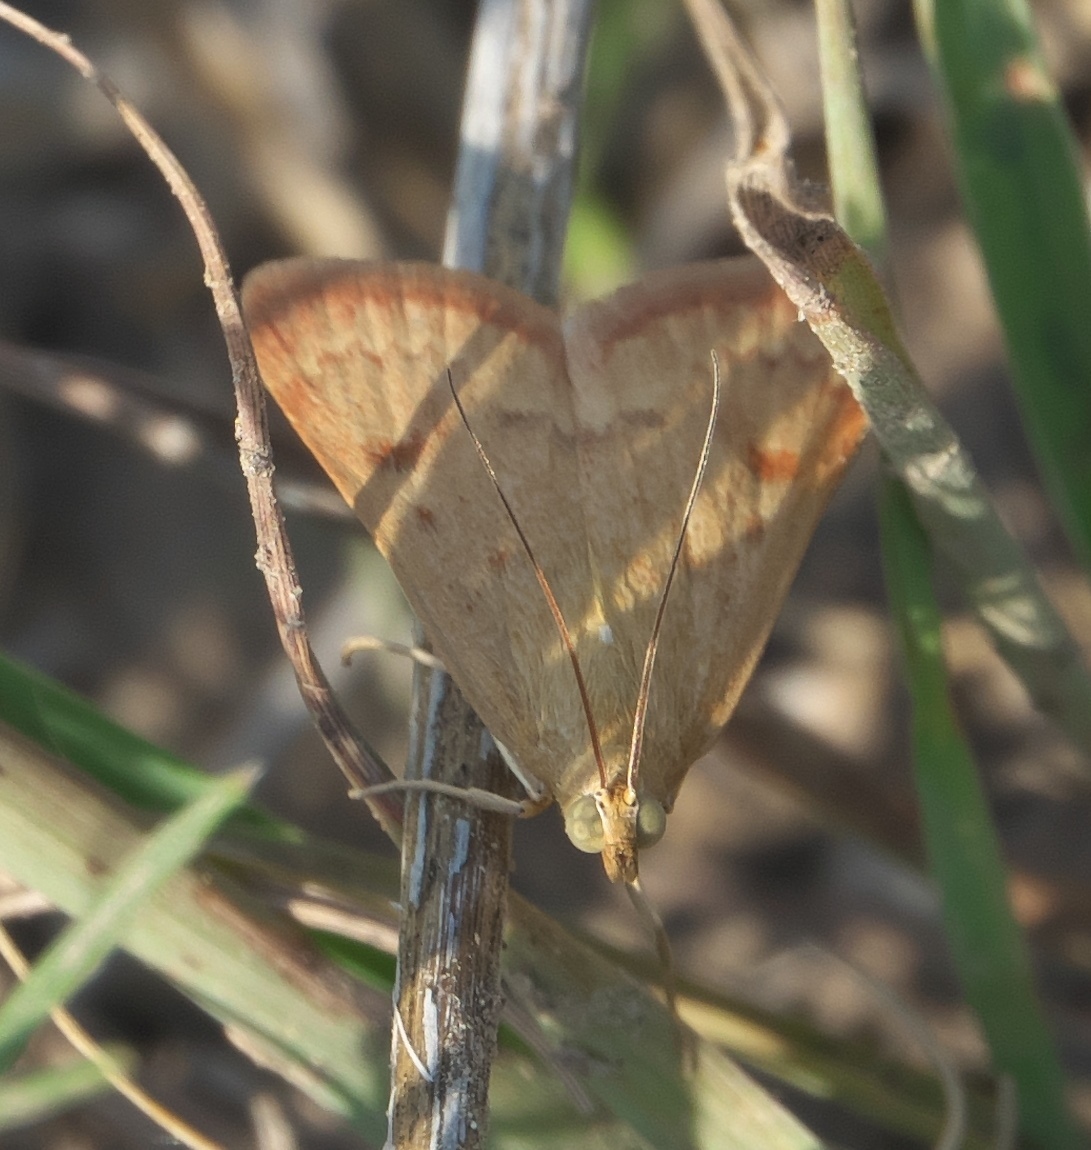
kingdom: Animalia
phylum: Arthropoda
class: Insecta
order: Lepidoptera
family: Crambidae
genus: Achyra
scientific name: Achyra rantalis
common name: Garden webworm
